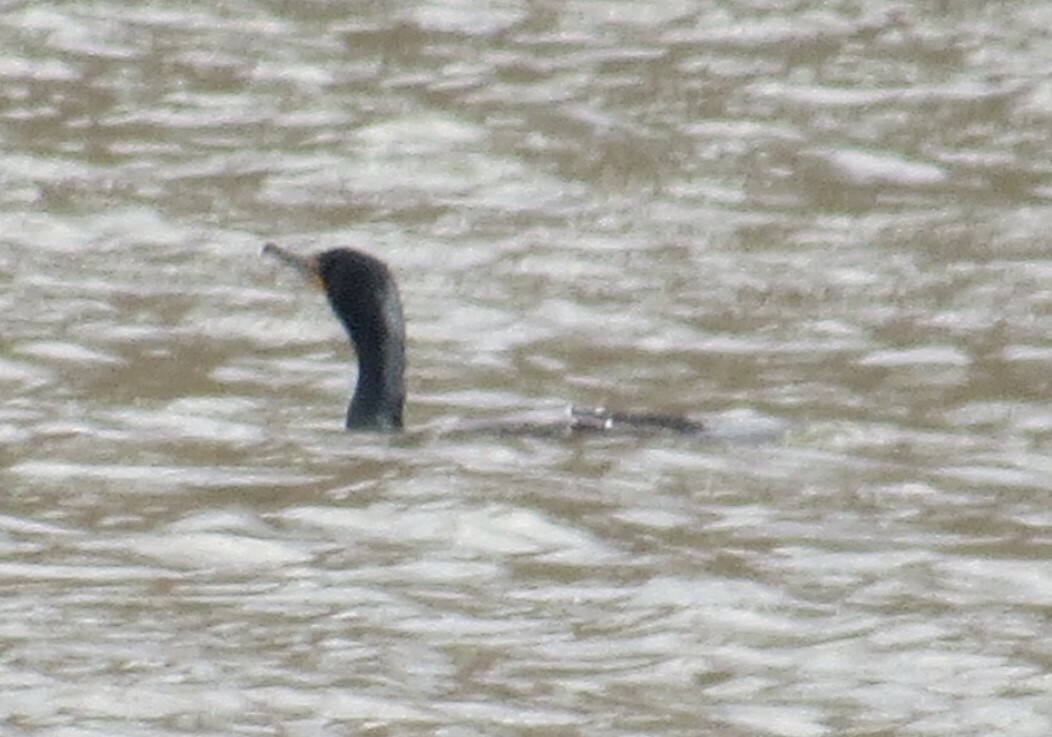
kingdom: Animalia
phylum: Chordata
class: Aves
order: Suliformes
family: Phalacrocoracidae
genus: Phalacrocorax
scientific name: Phalacrocorax auritus
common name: Double-crested cormorant
